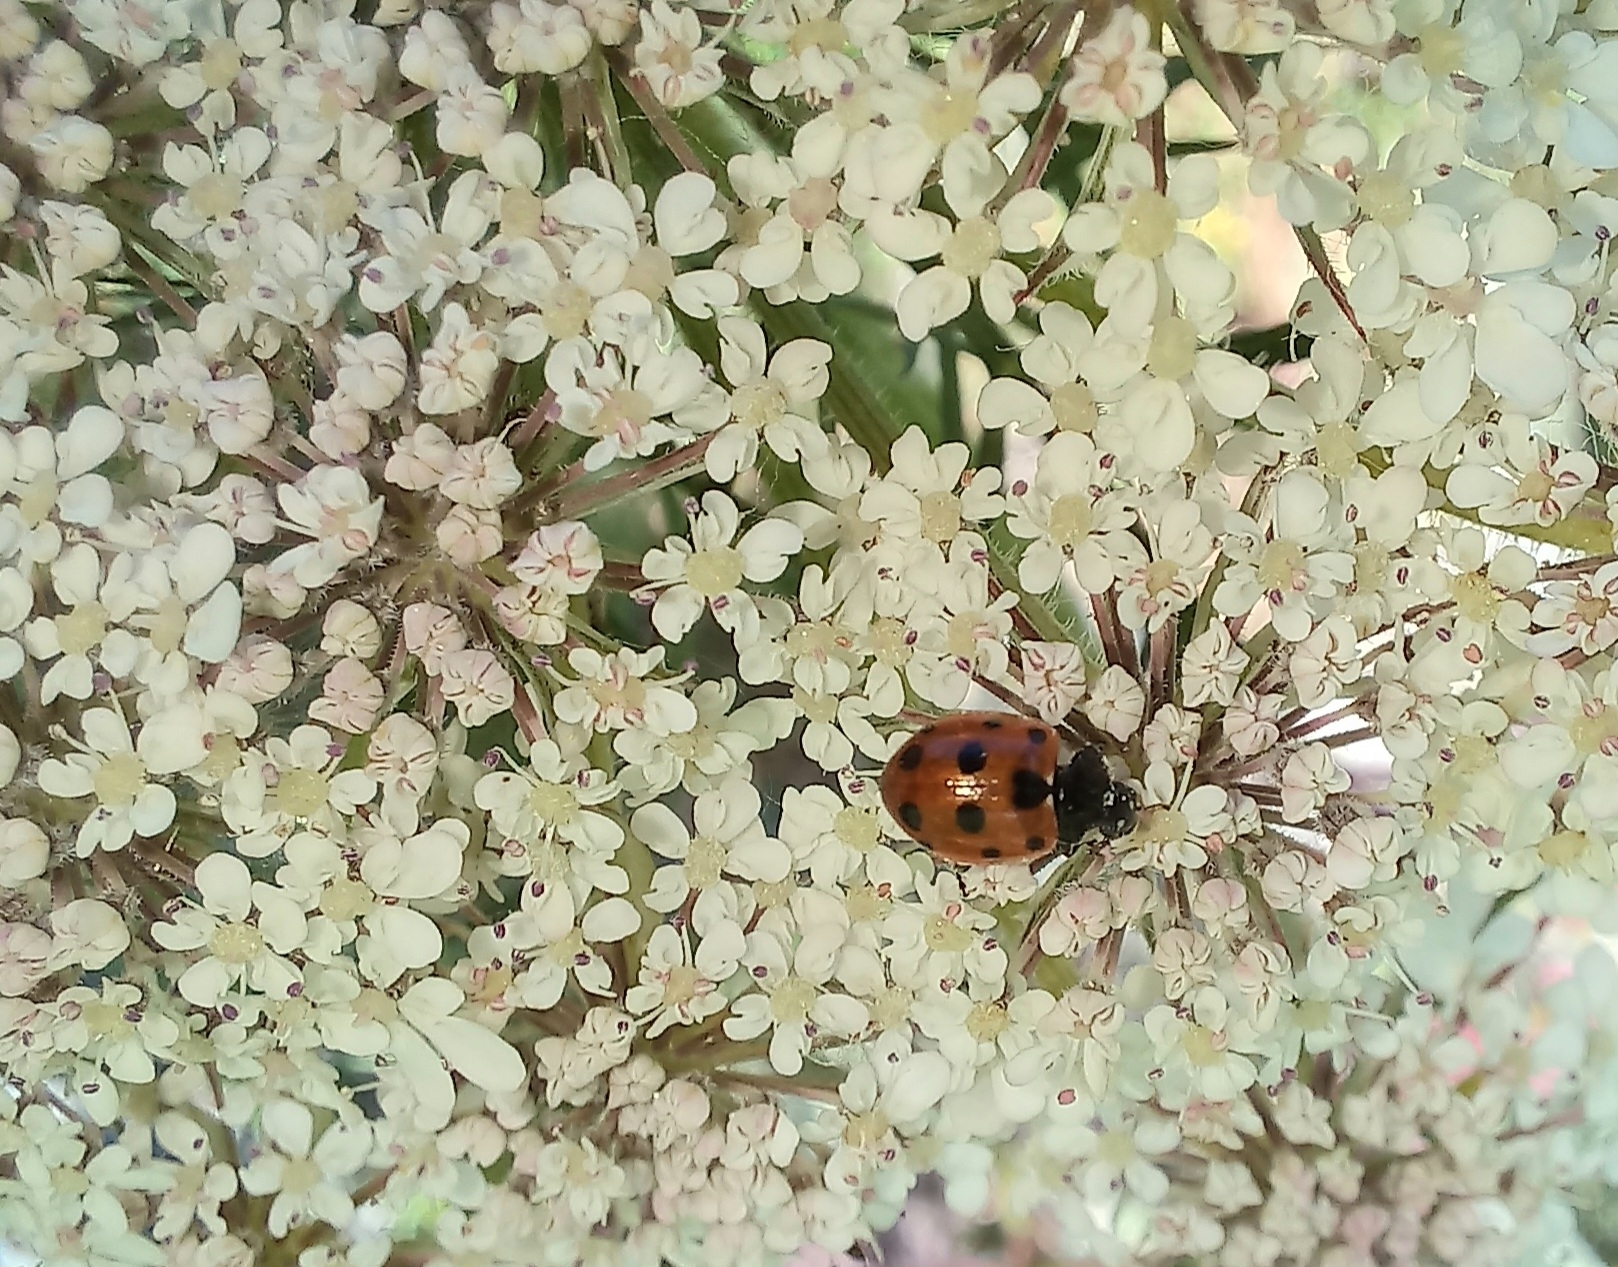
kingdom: Animalia
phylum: Arthropoda
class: Insecta
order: Coleoptera
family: Coccinellidae
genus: Coccinella
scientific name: Coccinella undecimpunctata
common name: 11-spot ladybird
